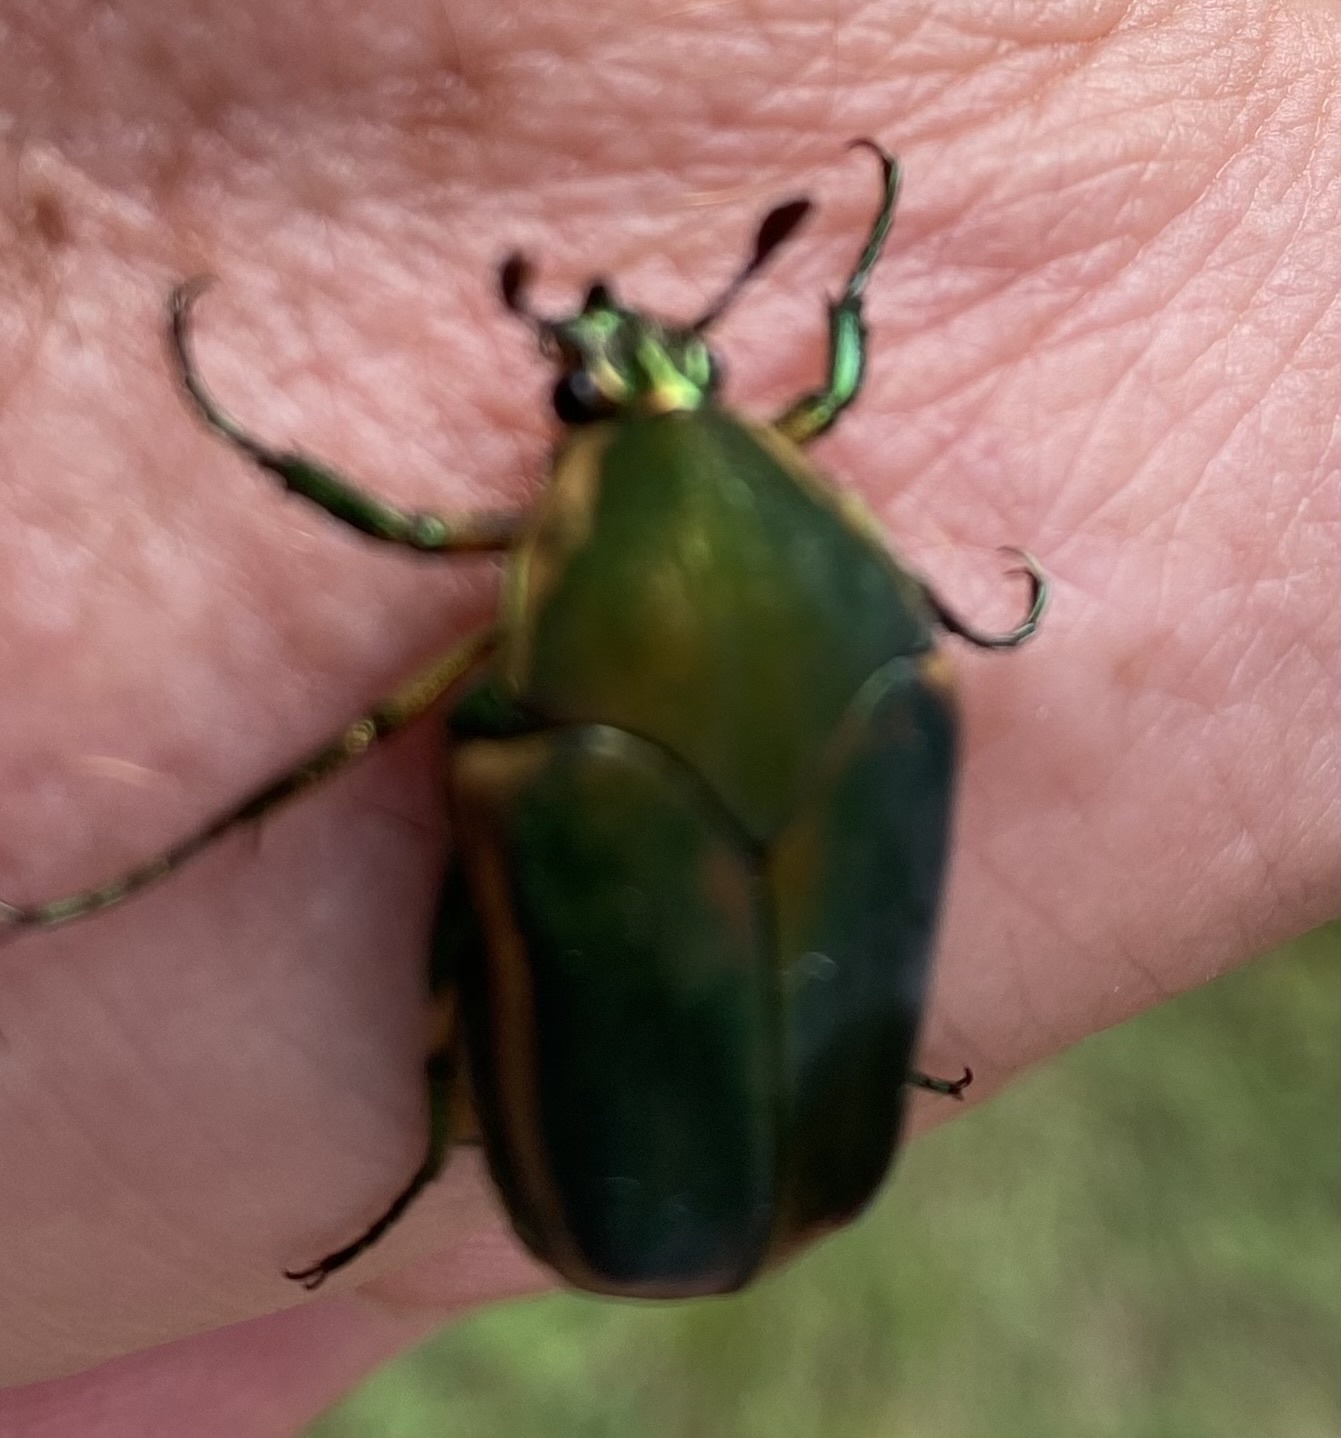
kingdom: Animalia
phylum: Arthropoda
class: Insecta
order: Coleoptera
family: Scarabaeidae
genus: Cotinis
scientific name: Cotinis nitida
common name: Common green june beetle
